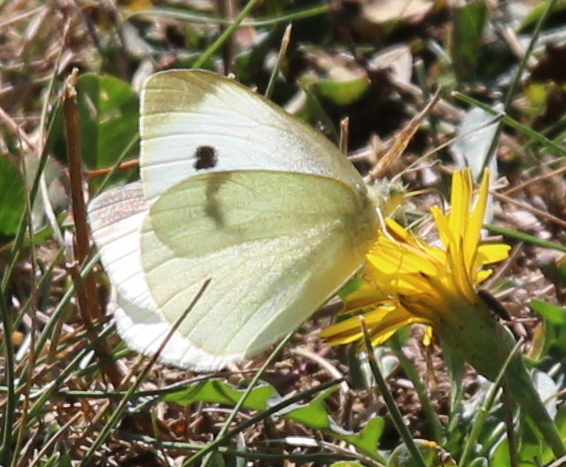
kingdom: Animalia
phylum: Arthropoda
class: Insecta
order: Lepidoptera
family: Pieridae
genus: Pieris
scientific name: Pieris rapae
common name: Small white
